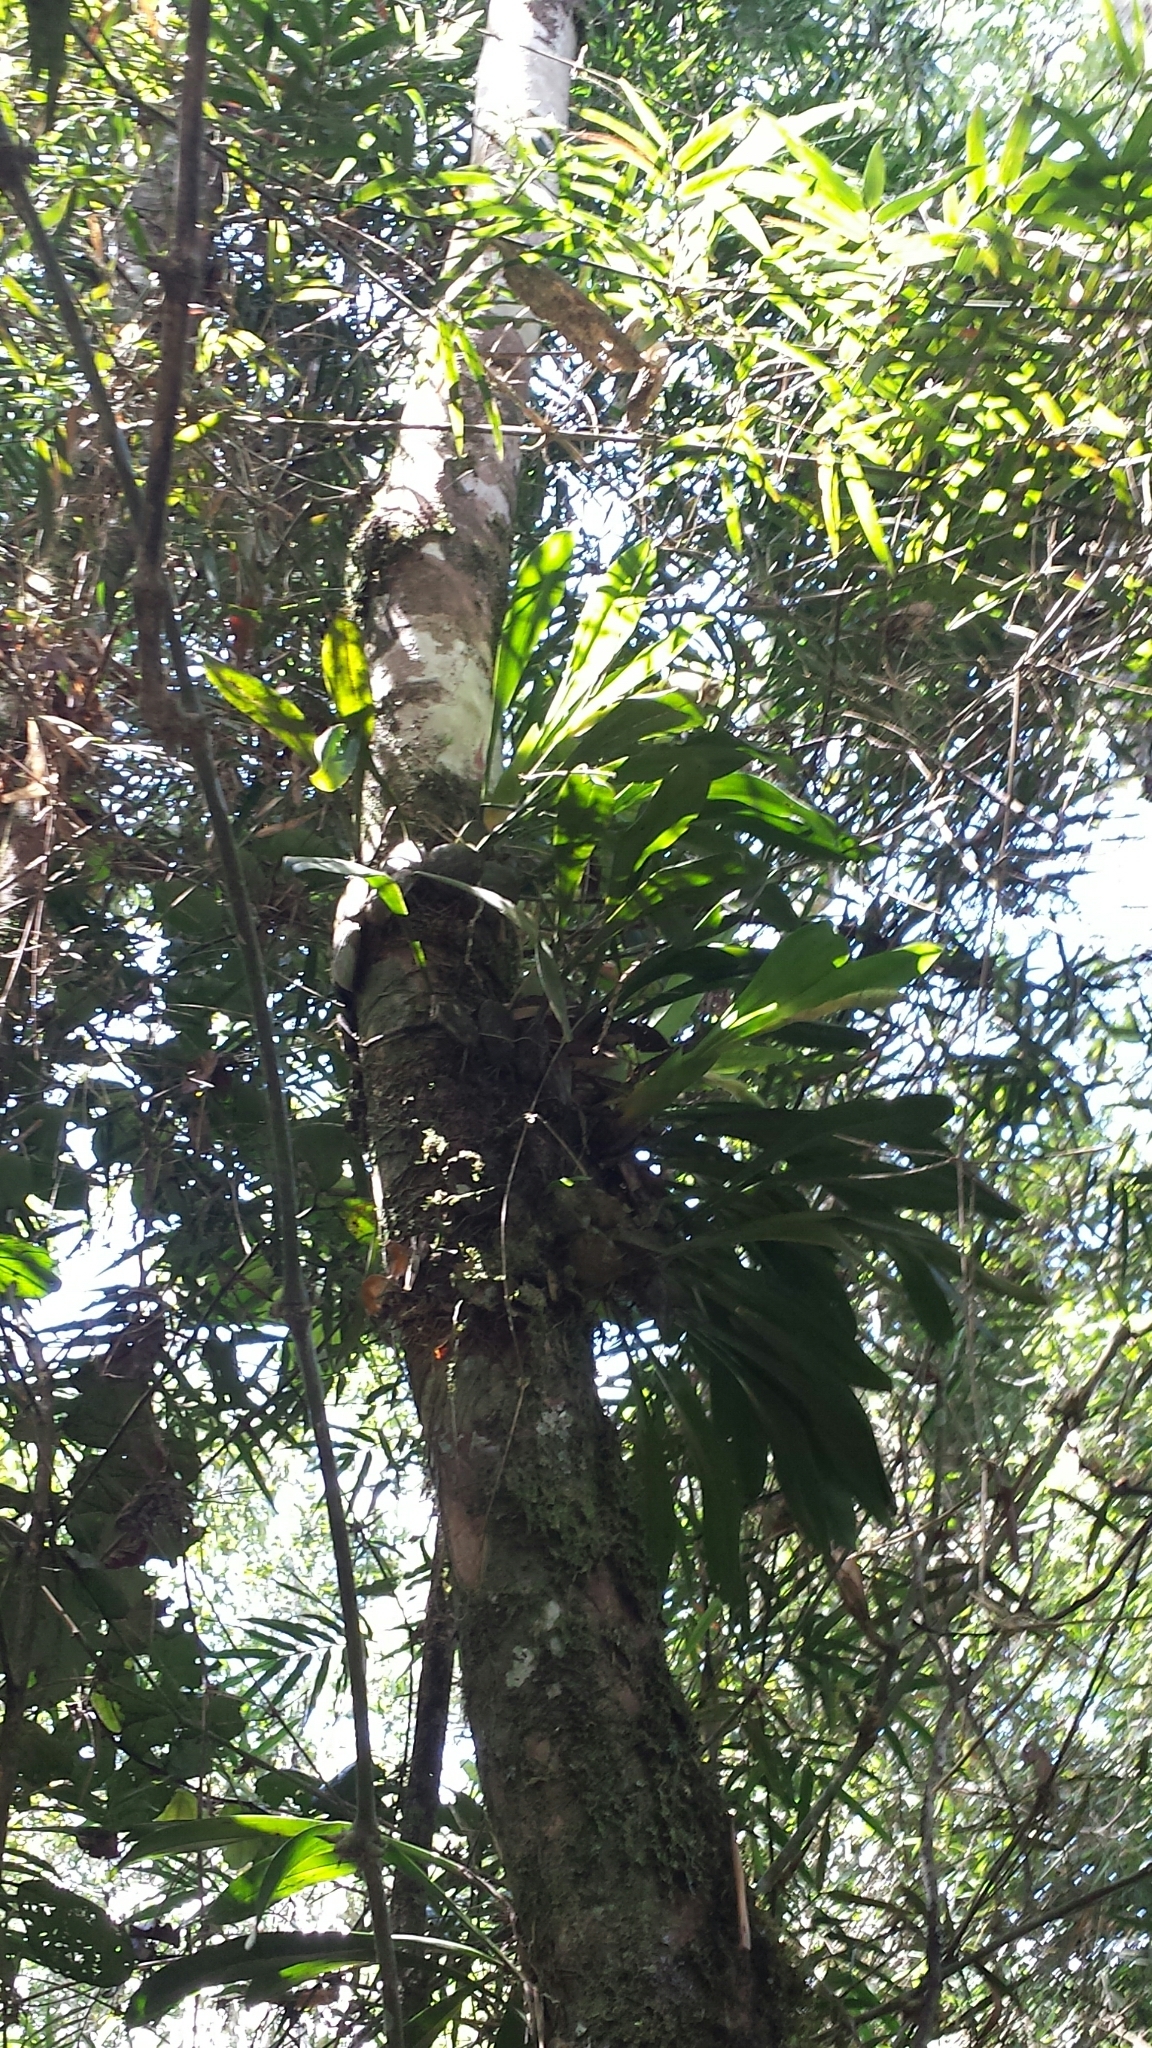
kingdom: Plantae
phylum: Tracheophyta
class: Liliopsida
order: Asparagales
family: Orchidaceae
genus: Bulbophyllum
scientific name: Bulbophyllum occlusum
